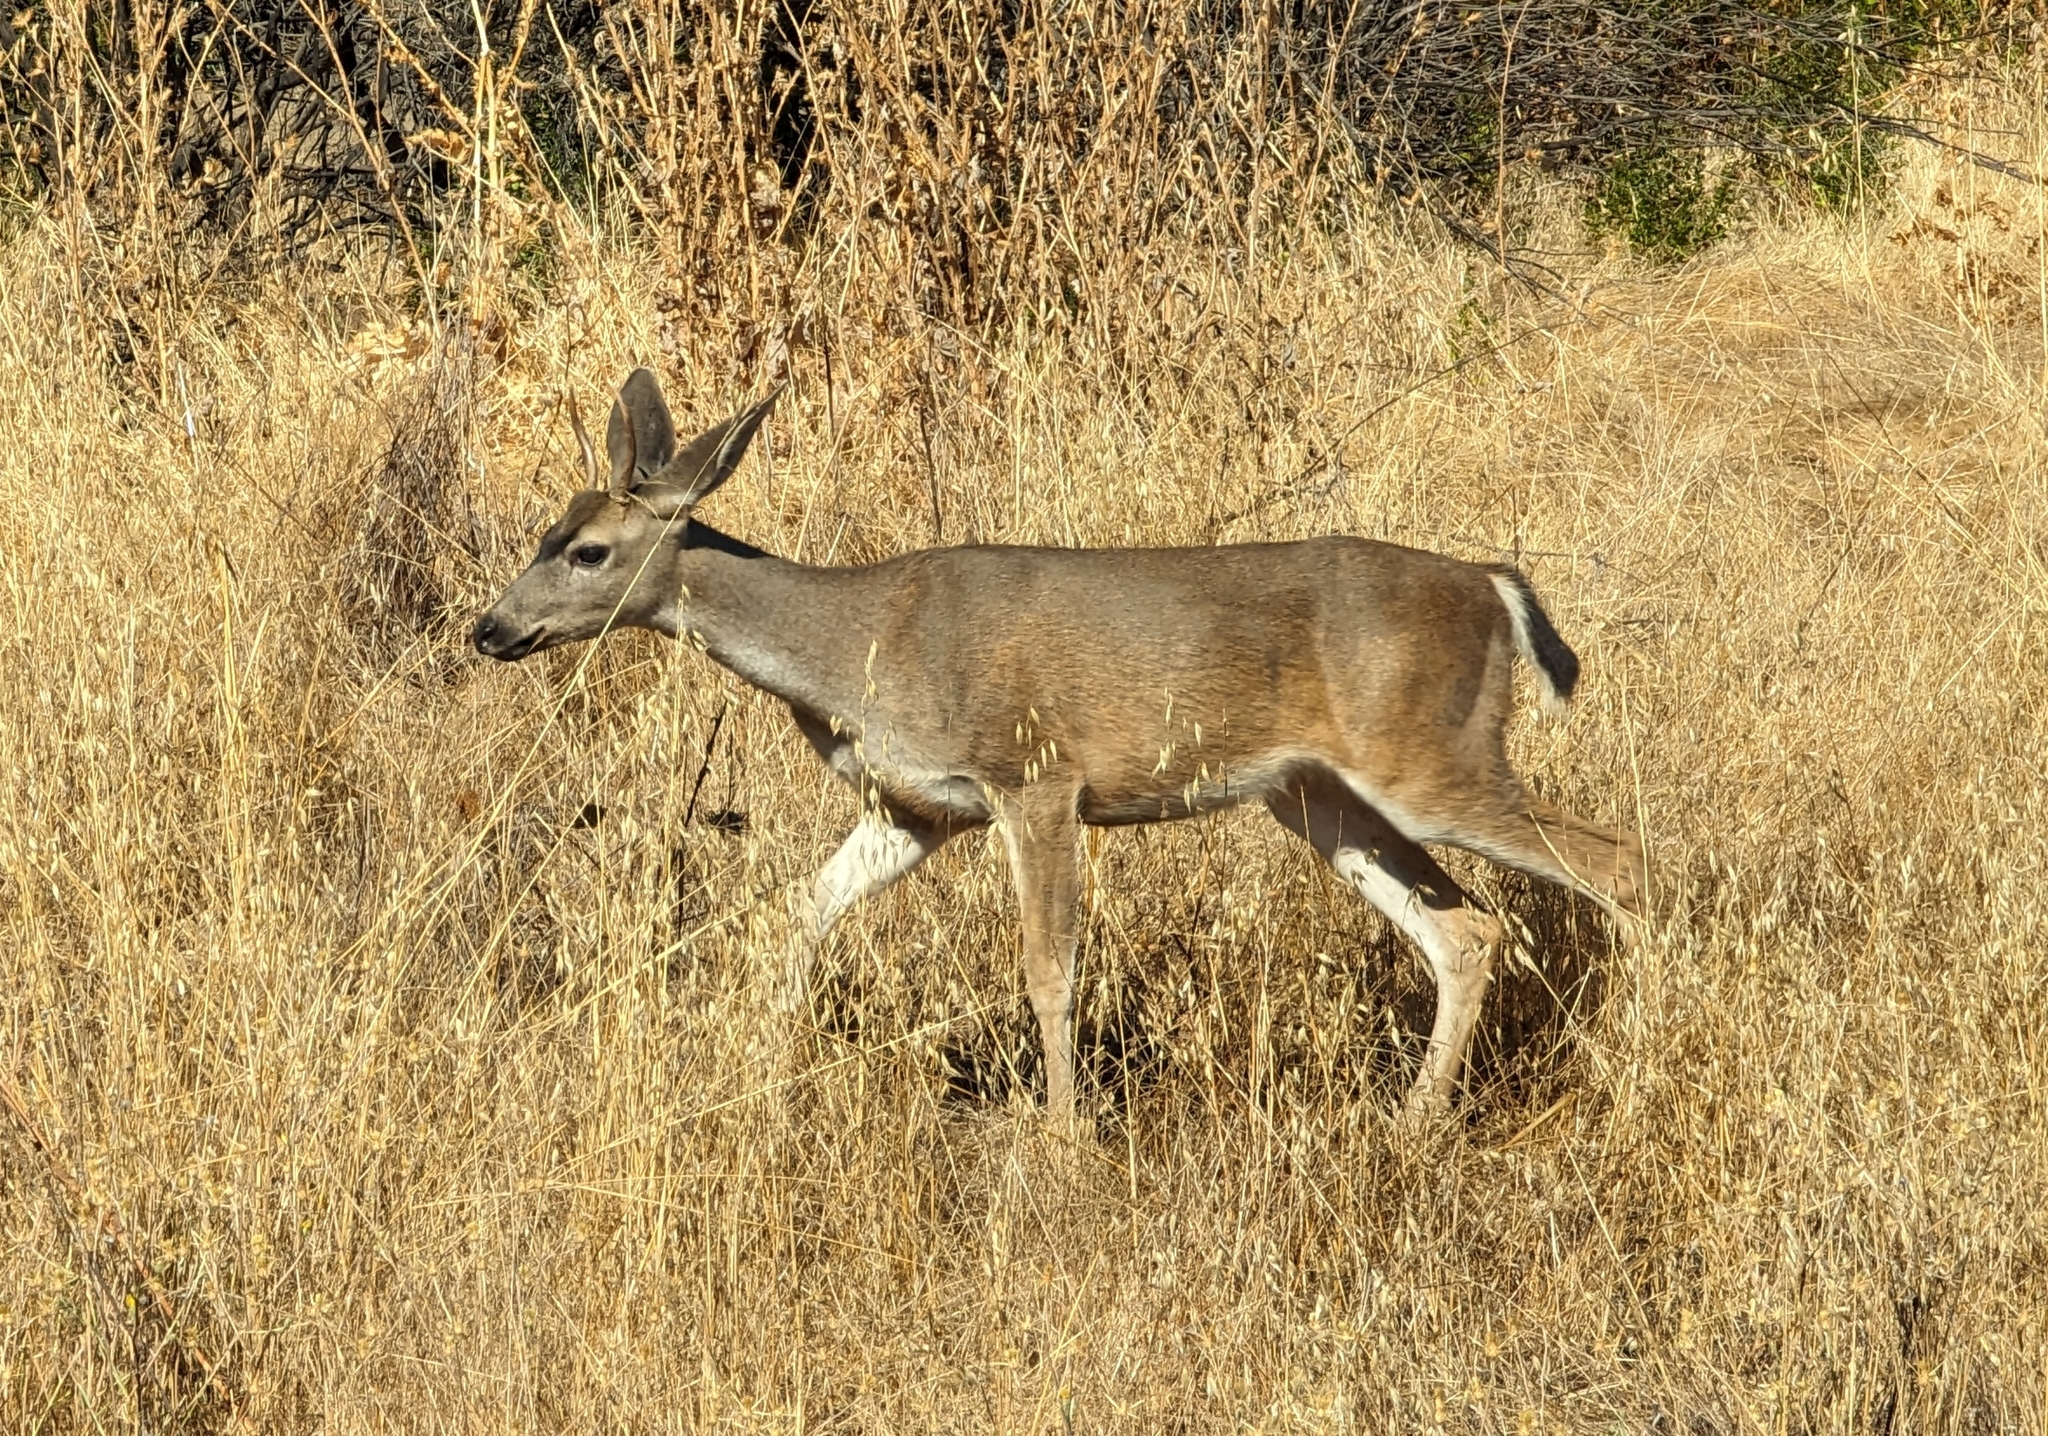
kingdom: Animalia
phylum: Chordata
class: Mammalia
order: Artiodactyla
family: Cervidae
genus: Odocoileus
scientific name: Odocoileus hemionus
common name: Mule deer
